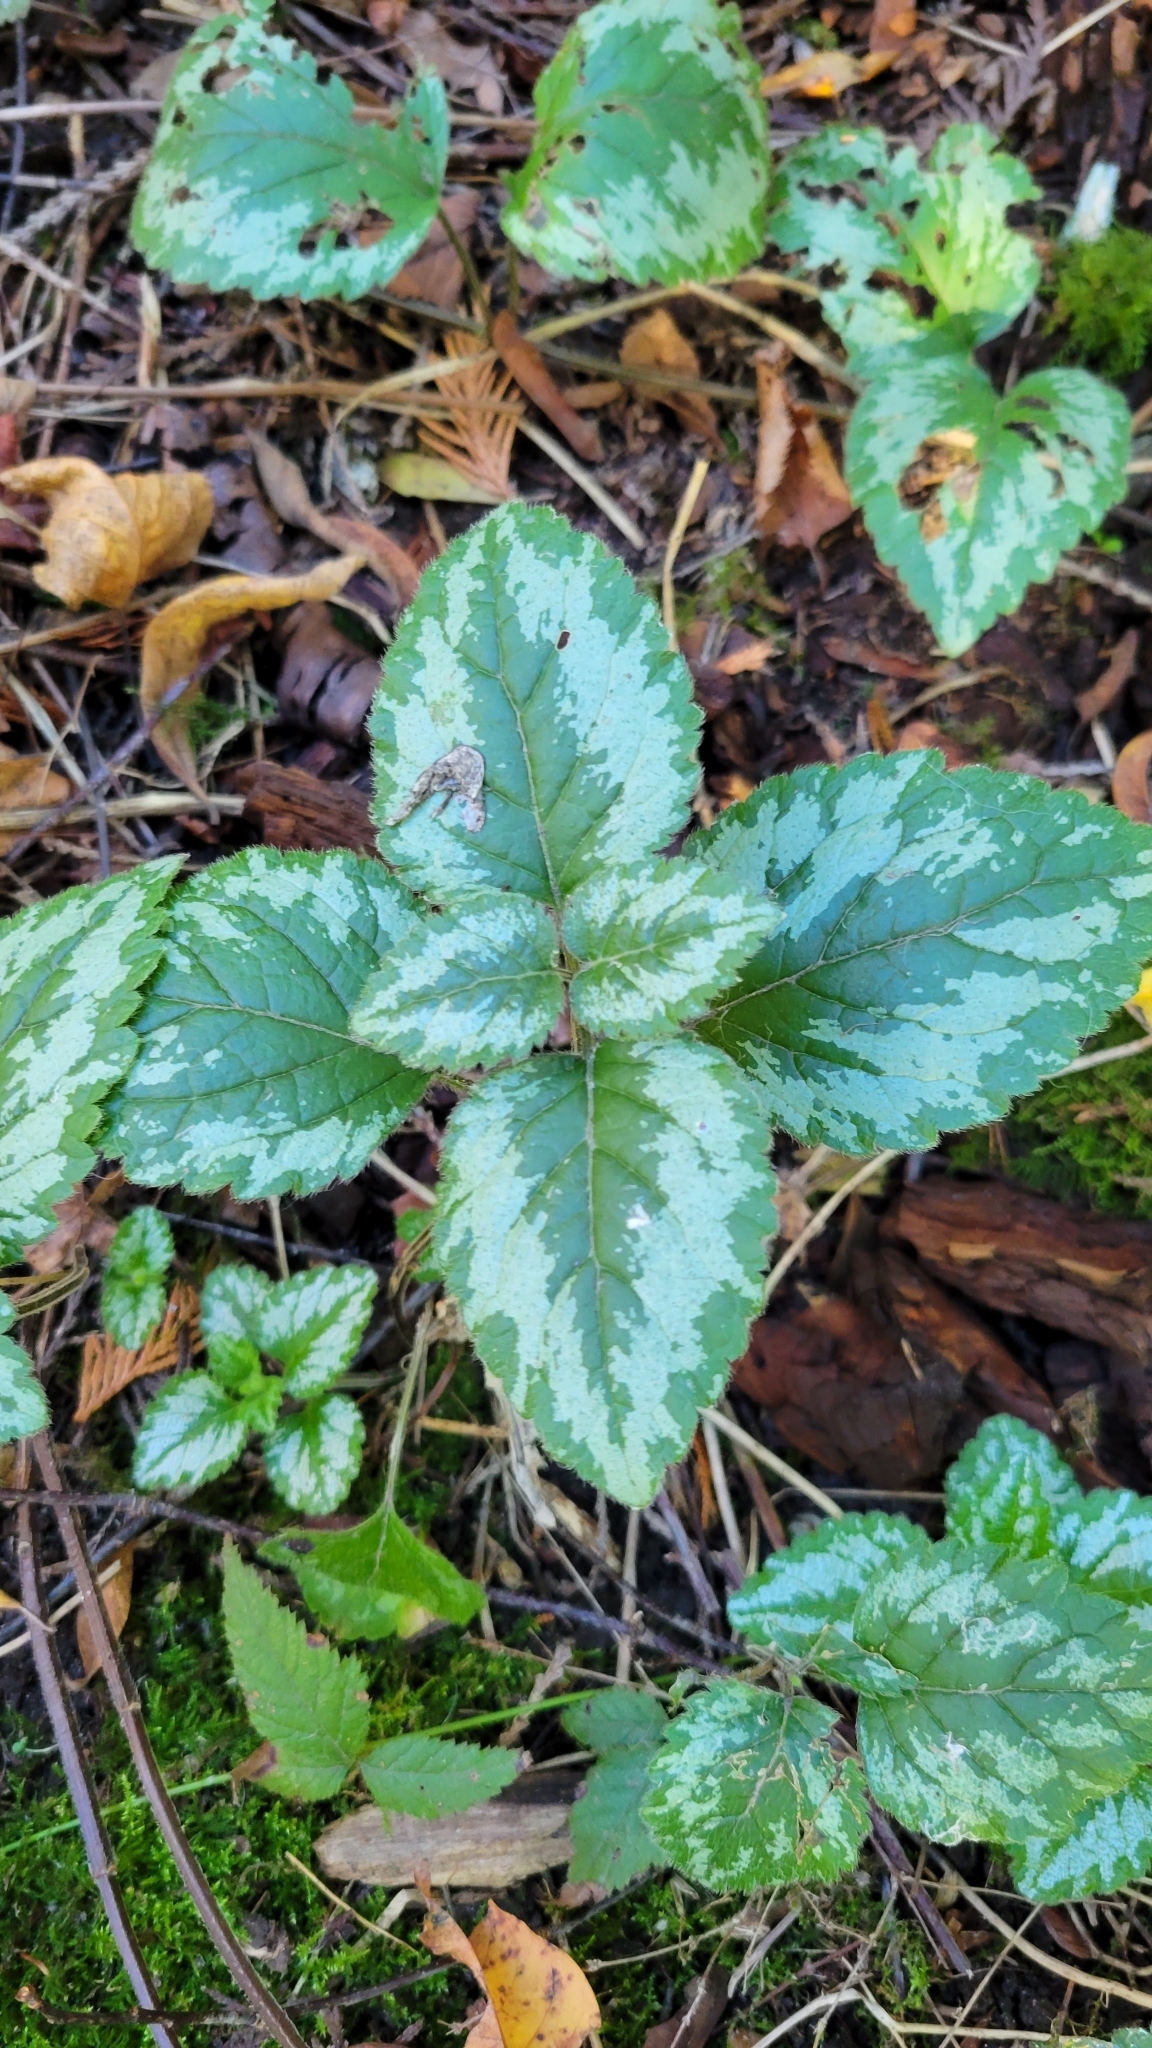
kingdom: Plantae
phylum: Tracheophyta
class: Magnoliopsida
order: Lamiales
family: Lamiaceae
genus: Lamium
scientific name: Lamium galeobdolon
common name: Yellow archangel
